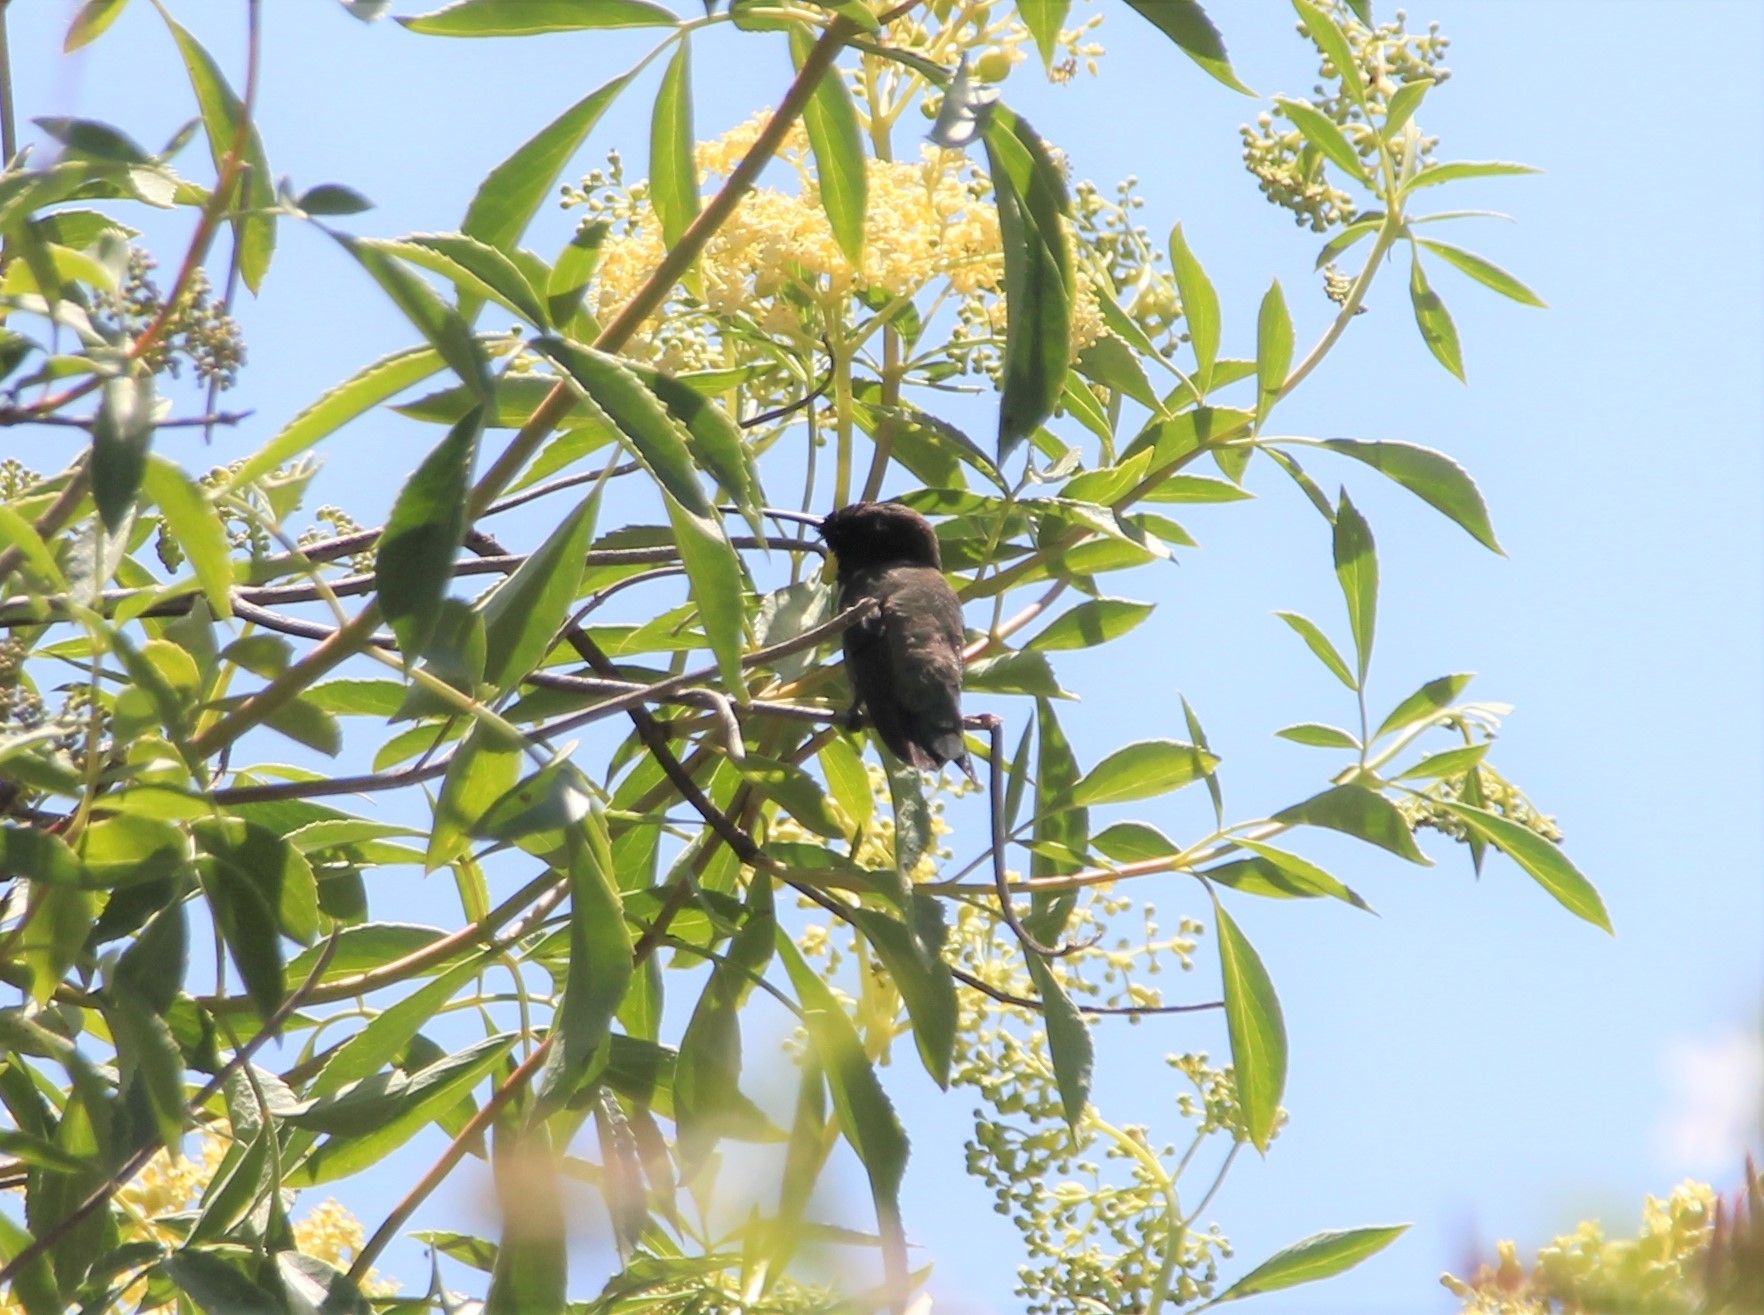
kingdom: Animalia
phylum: Chordata
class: Aves
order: Apodiformes
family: Trochilidae
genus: Archilochus
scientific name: Archilochus alexandri
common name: Black-chinned hummingbird
